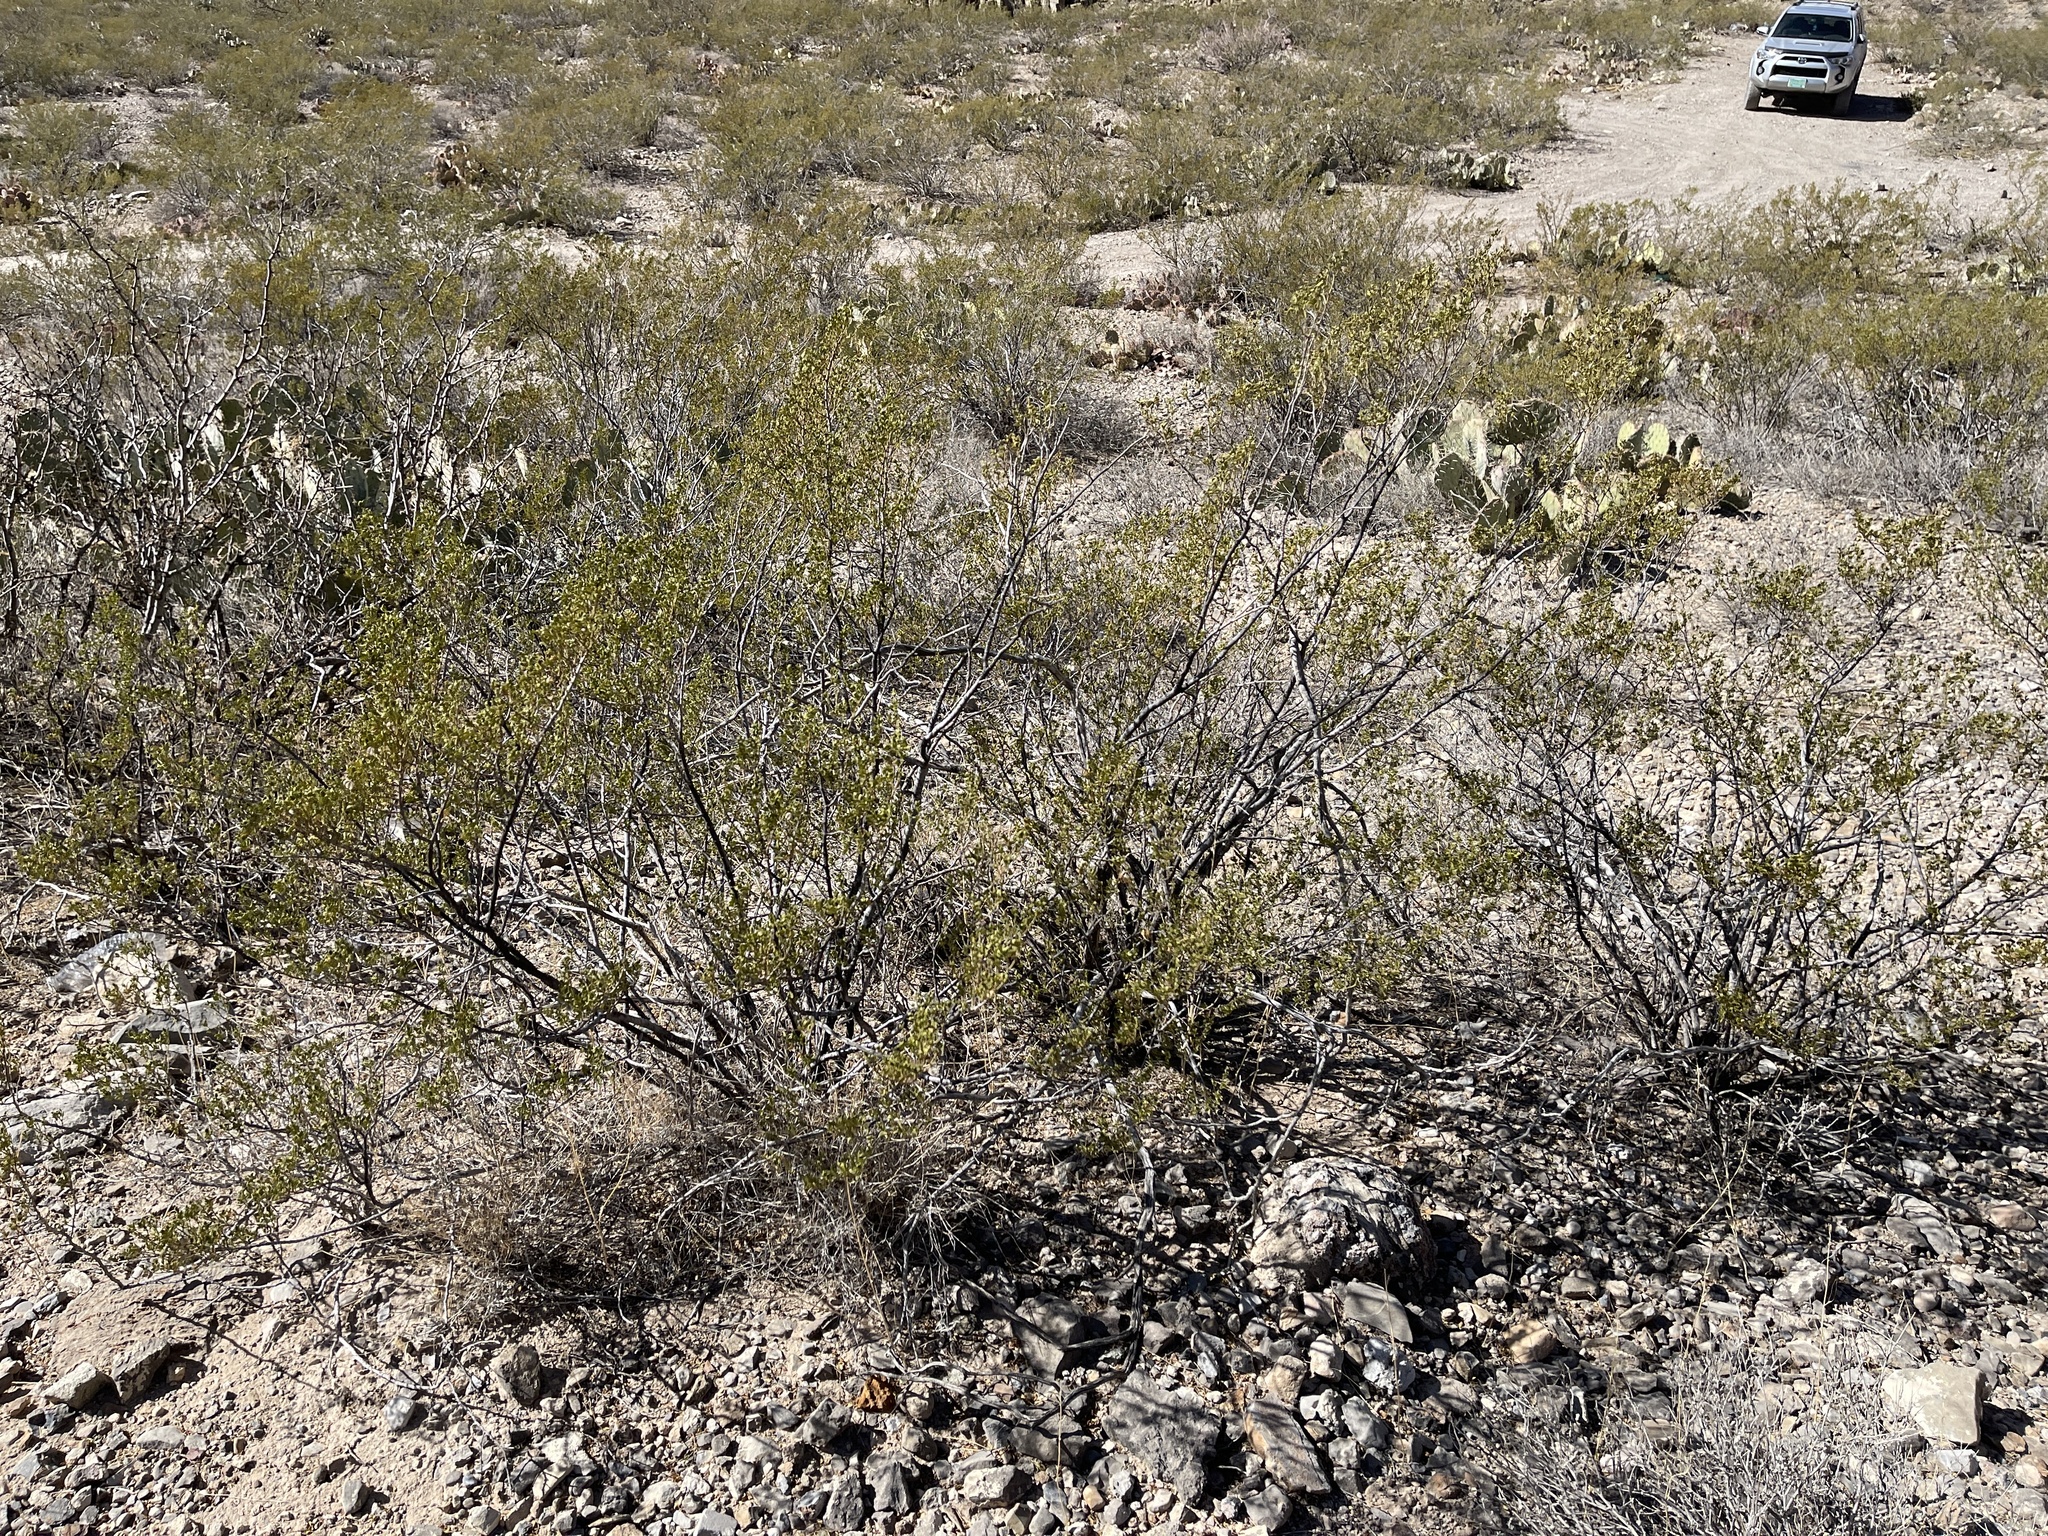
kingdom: Plantae
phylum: Tracheophyta
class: Magnoliopsida
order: Zygophyllales
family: Zygophyllaceae
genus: Larrea
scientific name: Larrea tridentata
